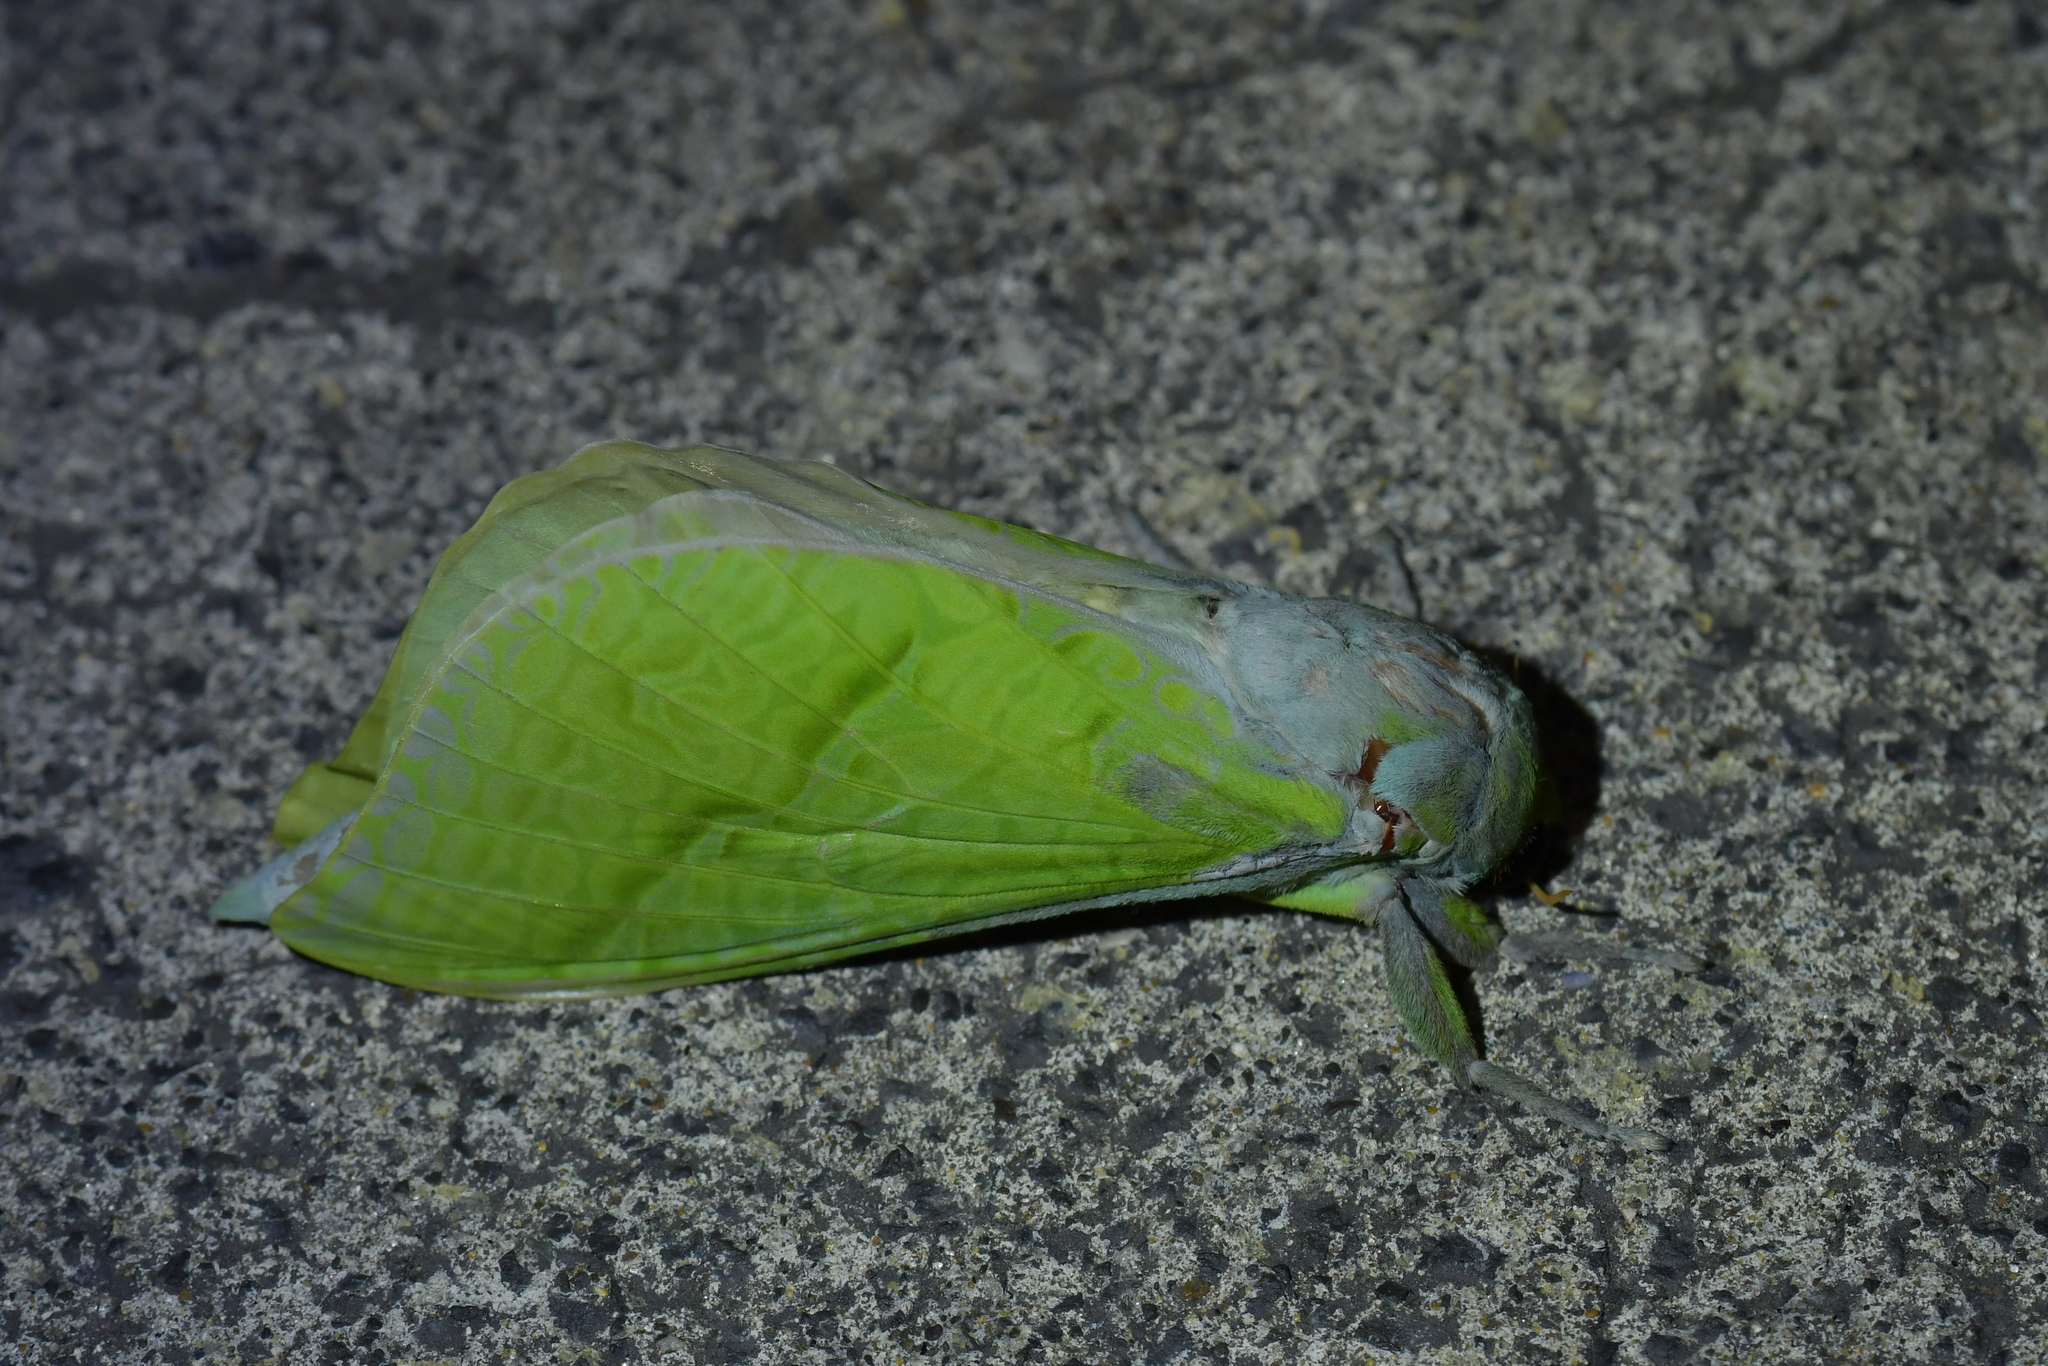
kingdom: Animalia
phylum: Arthropoda
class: Insecta
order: Lepidoptera
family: Hepialidae
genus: Aenetus
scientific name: Aenetus virescens
